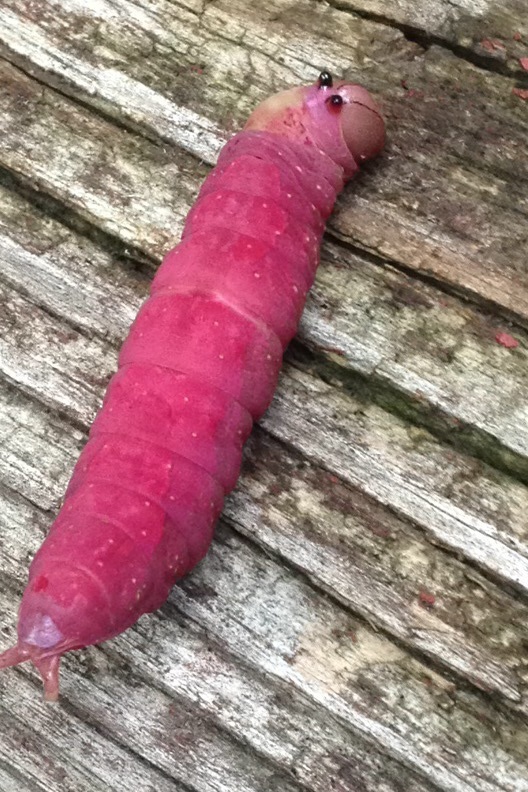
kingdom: Animalia
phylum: Arthropoda
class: Insecta
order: Lepidoptera
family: Notodontidae
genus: Heterocampa
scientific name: Heterocampa
